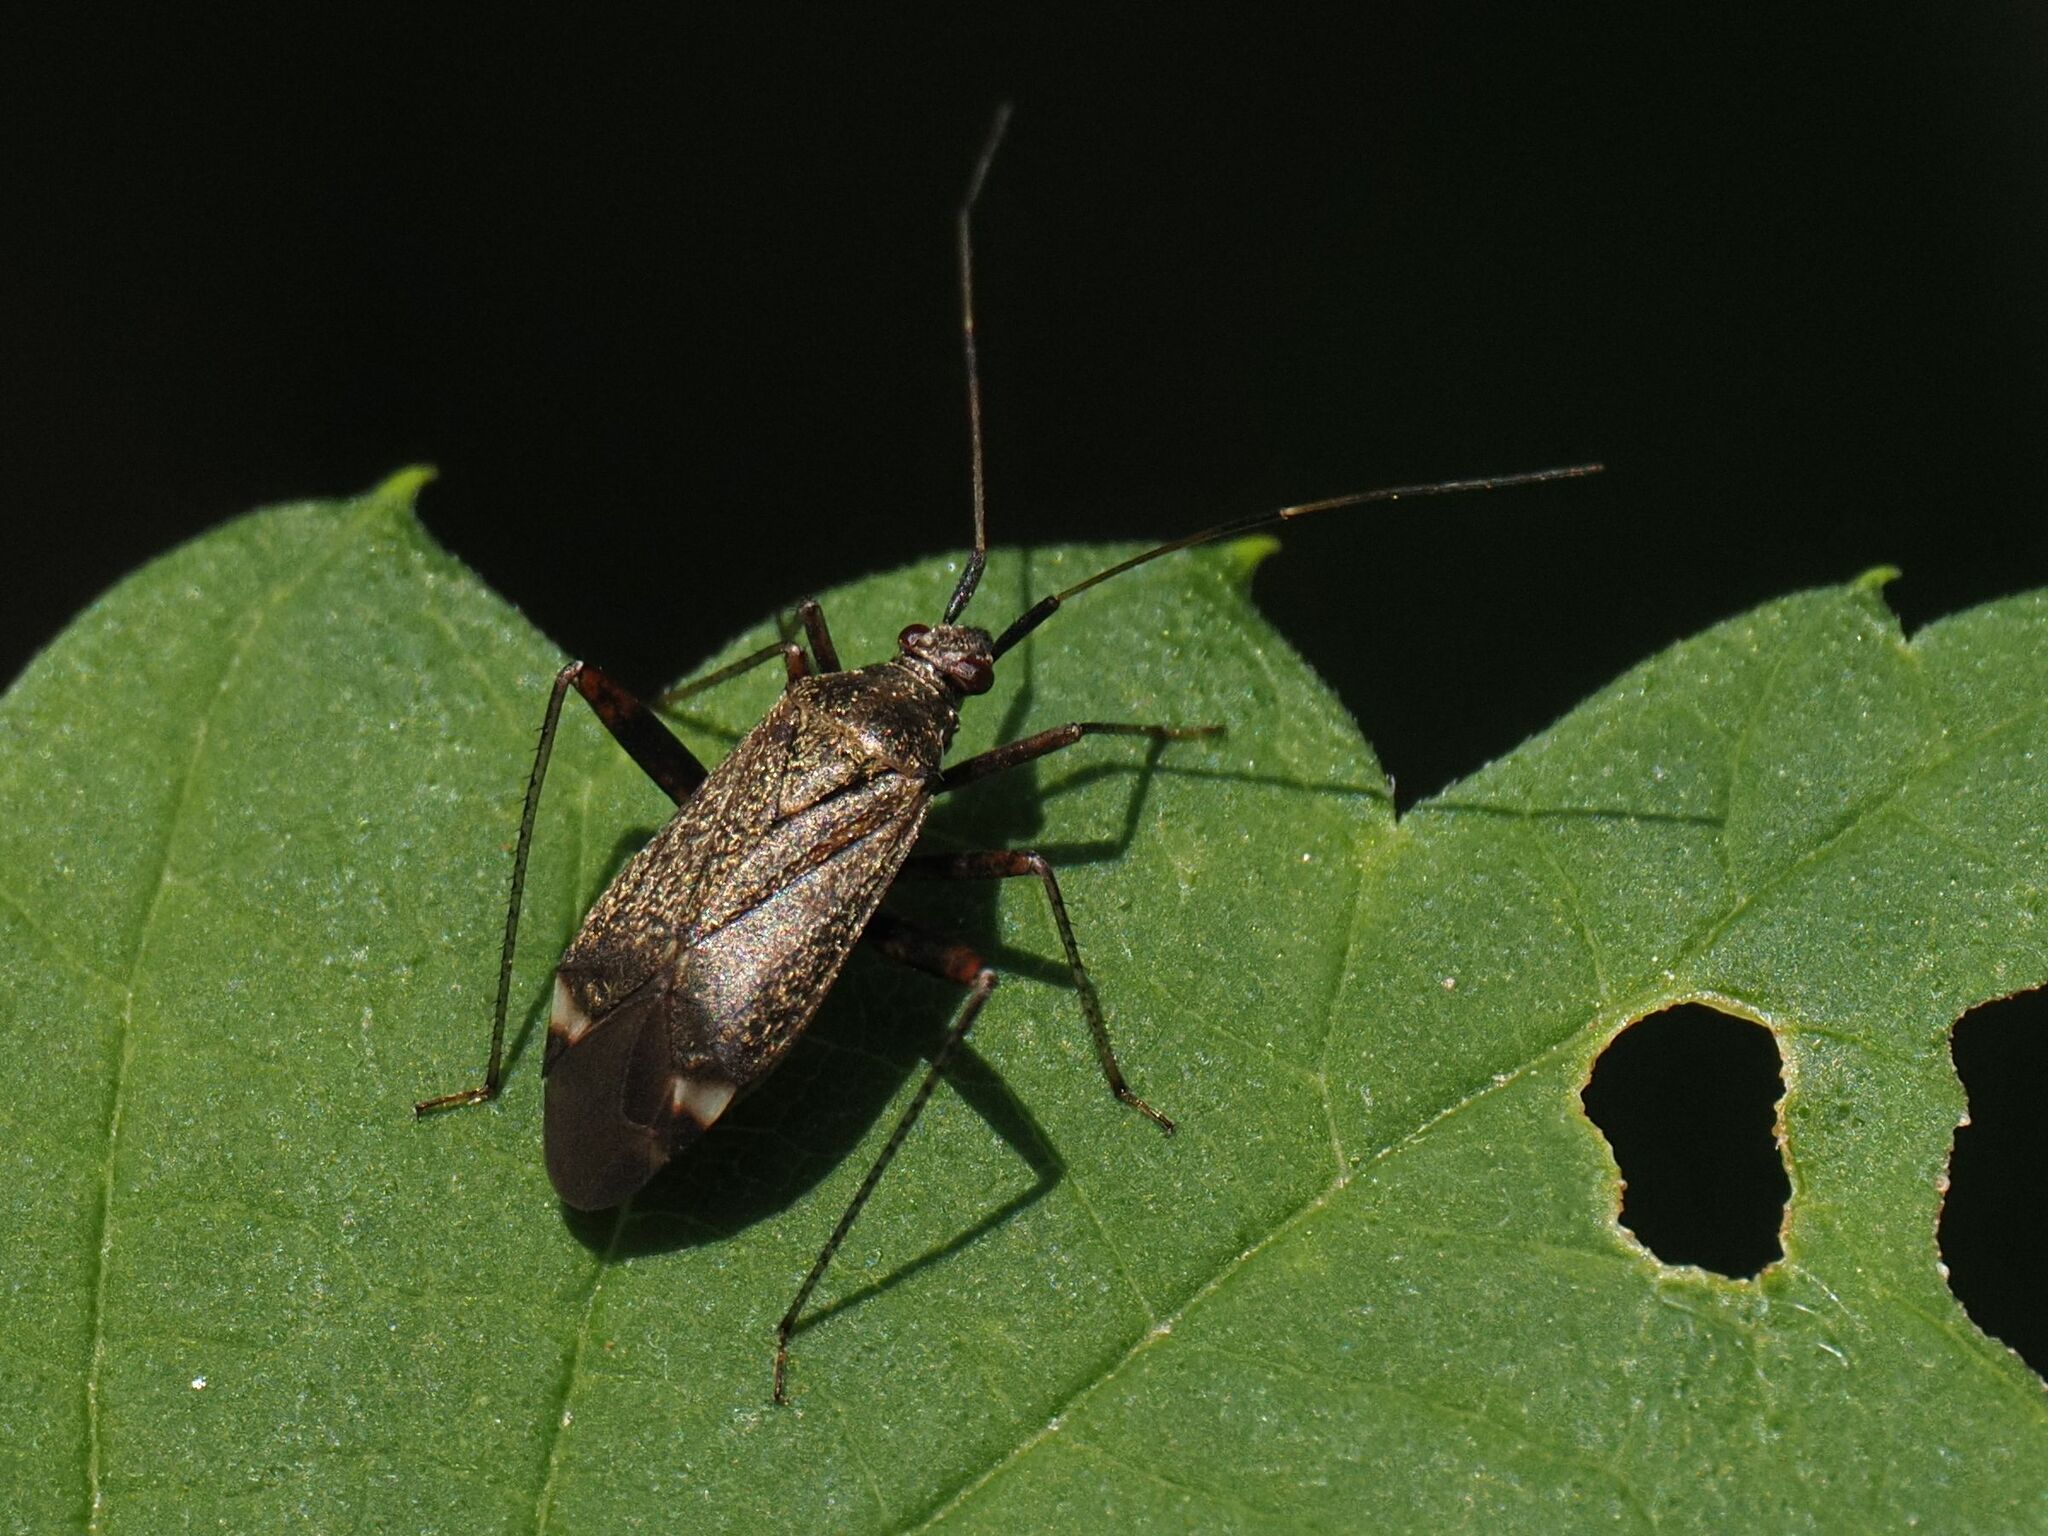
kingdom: Animalia
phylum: Arthropoda
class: Insecta
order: Hemiptera
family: Miridae
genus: Closterotomus
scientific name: Closterotomus fulvomaculatus
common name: Spotted plant bug
